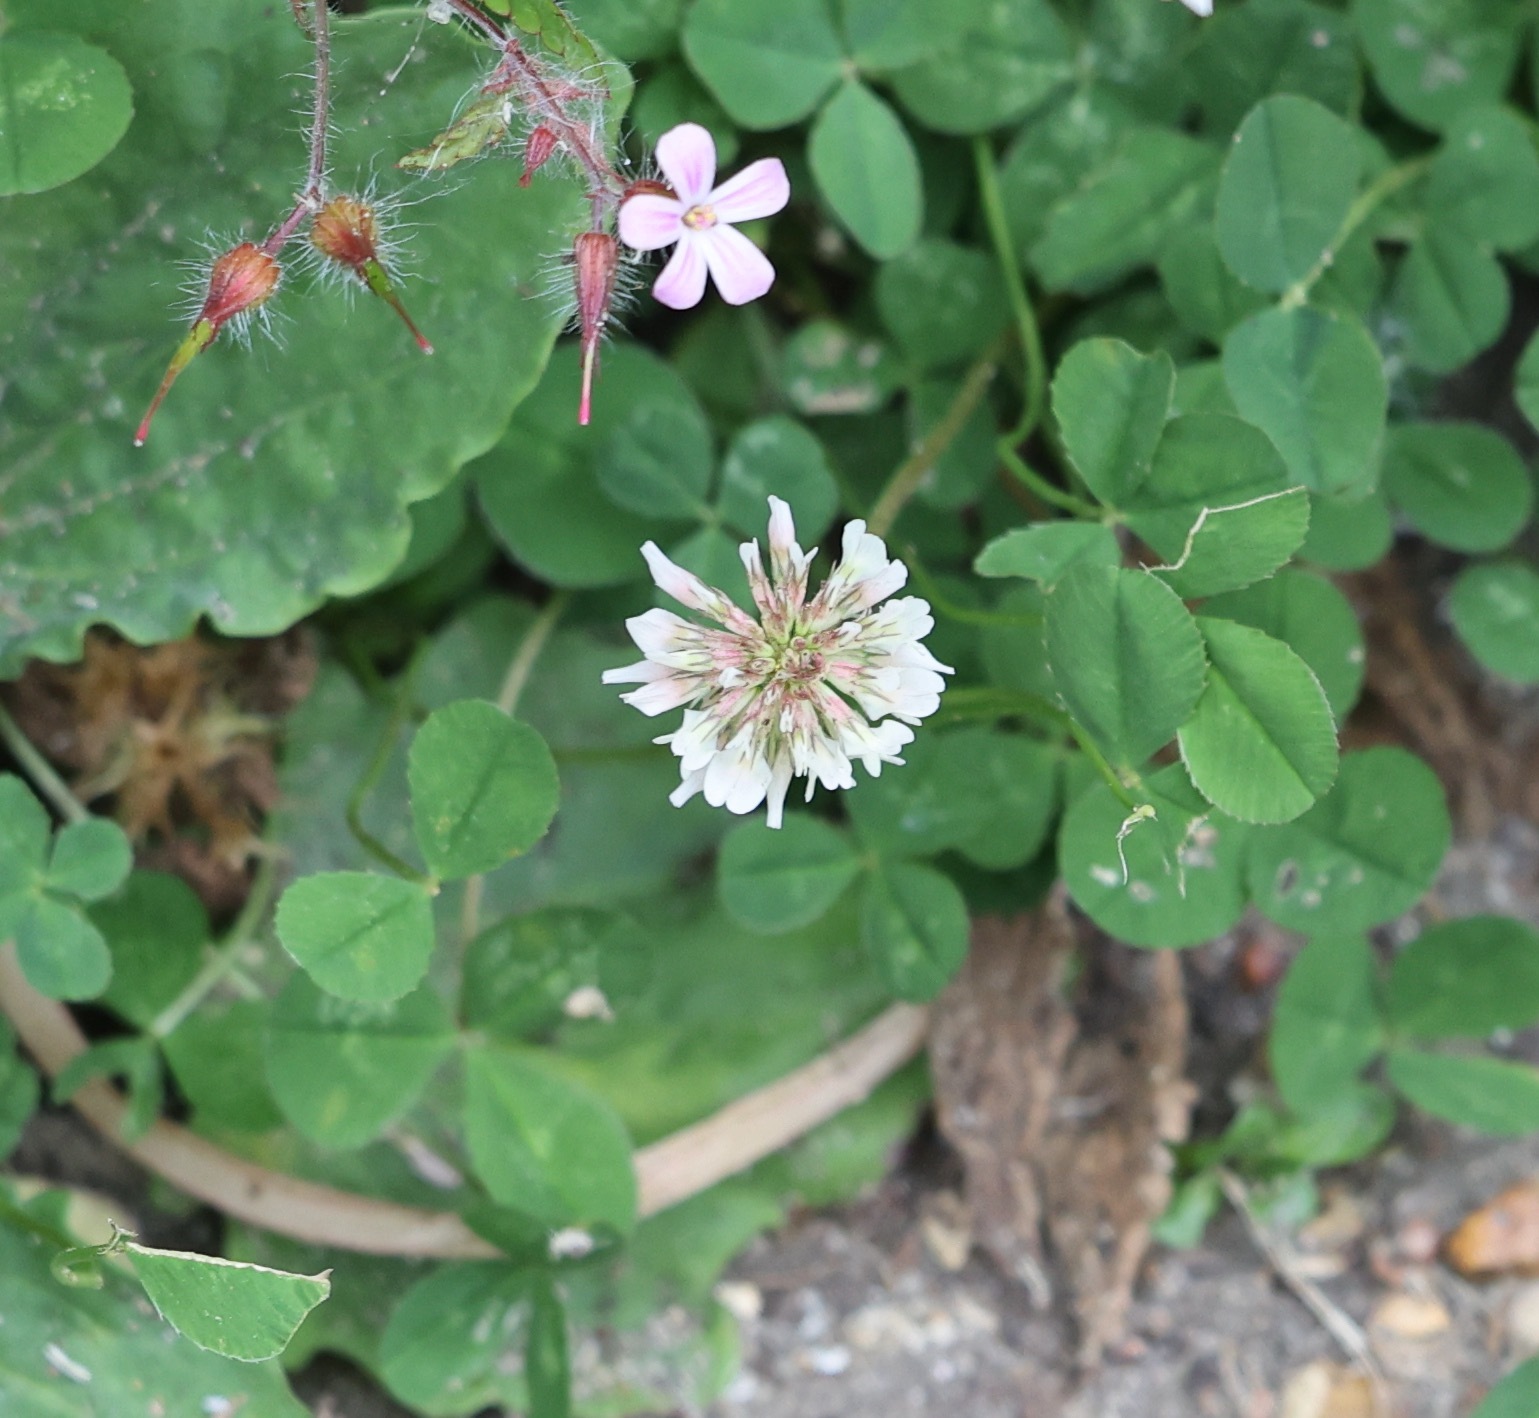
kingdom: Plantae
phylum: Tracheophyta
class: Magnoliopsida
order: Fabales
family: Fabaceae
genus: Trifolium
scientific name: Trifolium repens
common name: White clover
